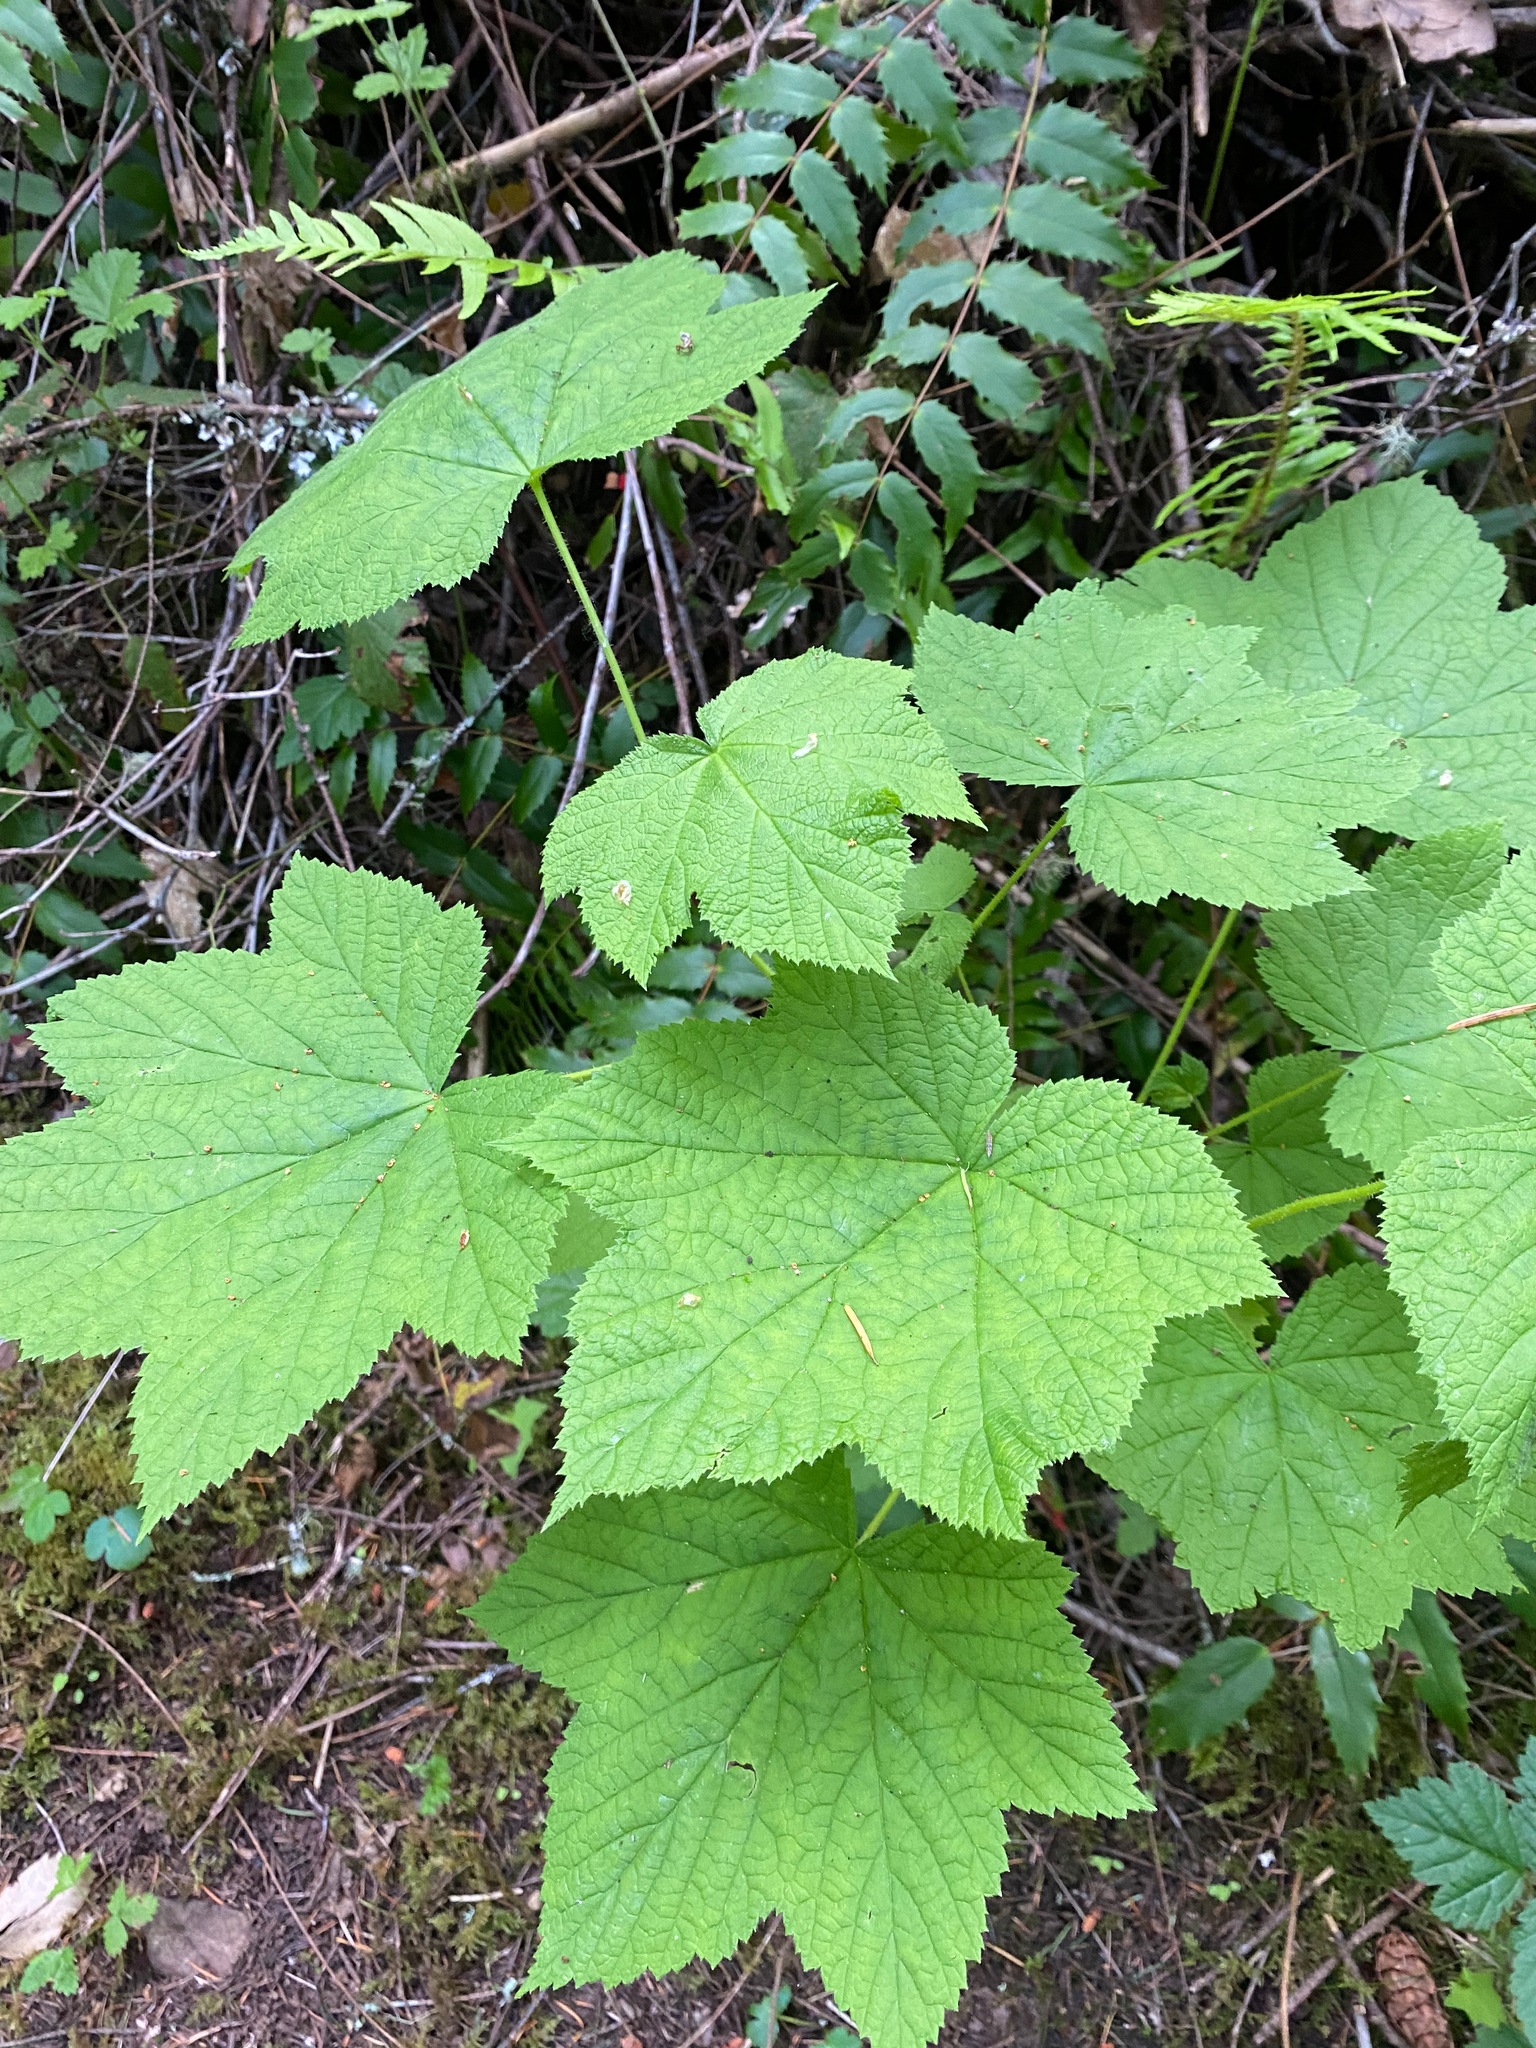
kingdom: Plantae
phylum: Tracheophyta
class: Magnoliopsida
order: Rosales
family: Rosaceae
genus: Rubus
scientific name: Rubus parviflorus
